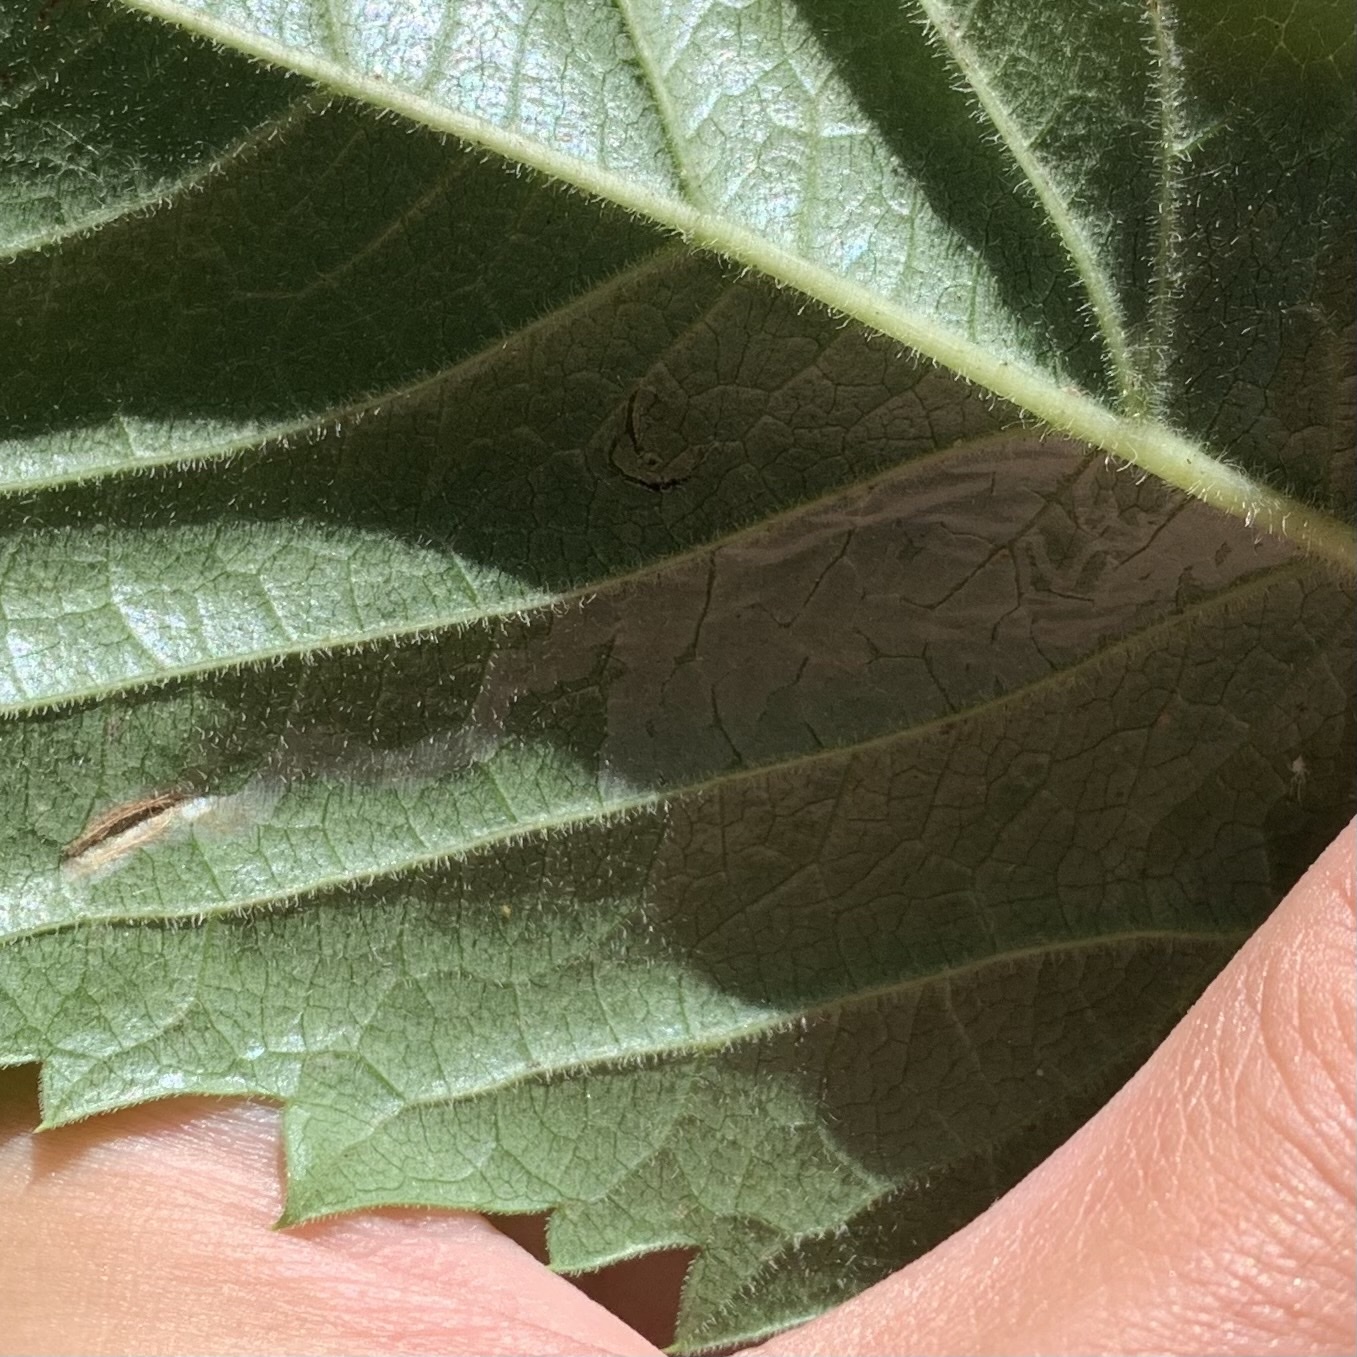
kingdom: Animalia
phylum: Arthropoda
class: Insecta
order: Lepidoptera
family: Gracillariidae
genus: Phyllocnistis
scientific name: Phyllocnistis ampelopsiella
